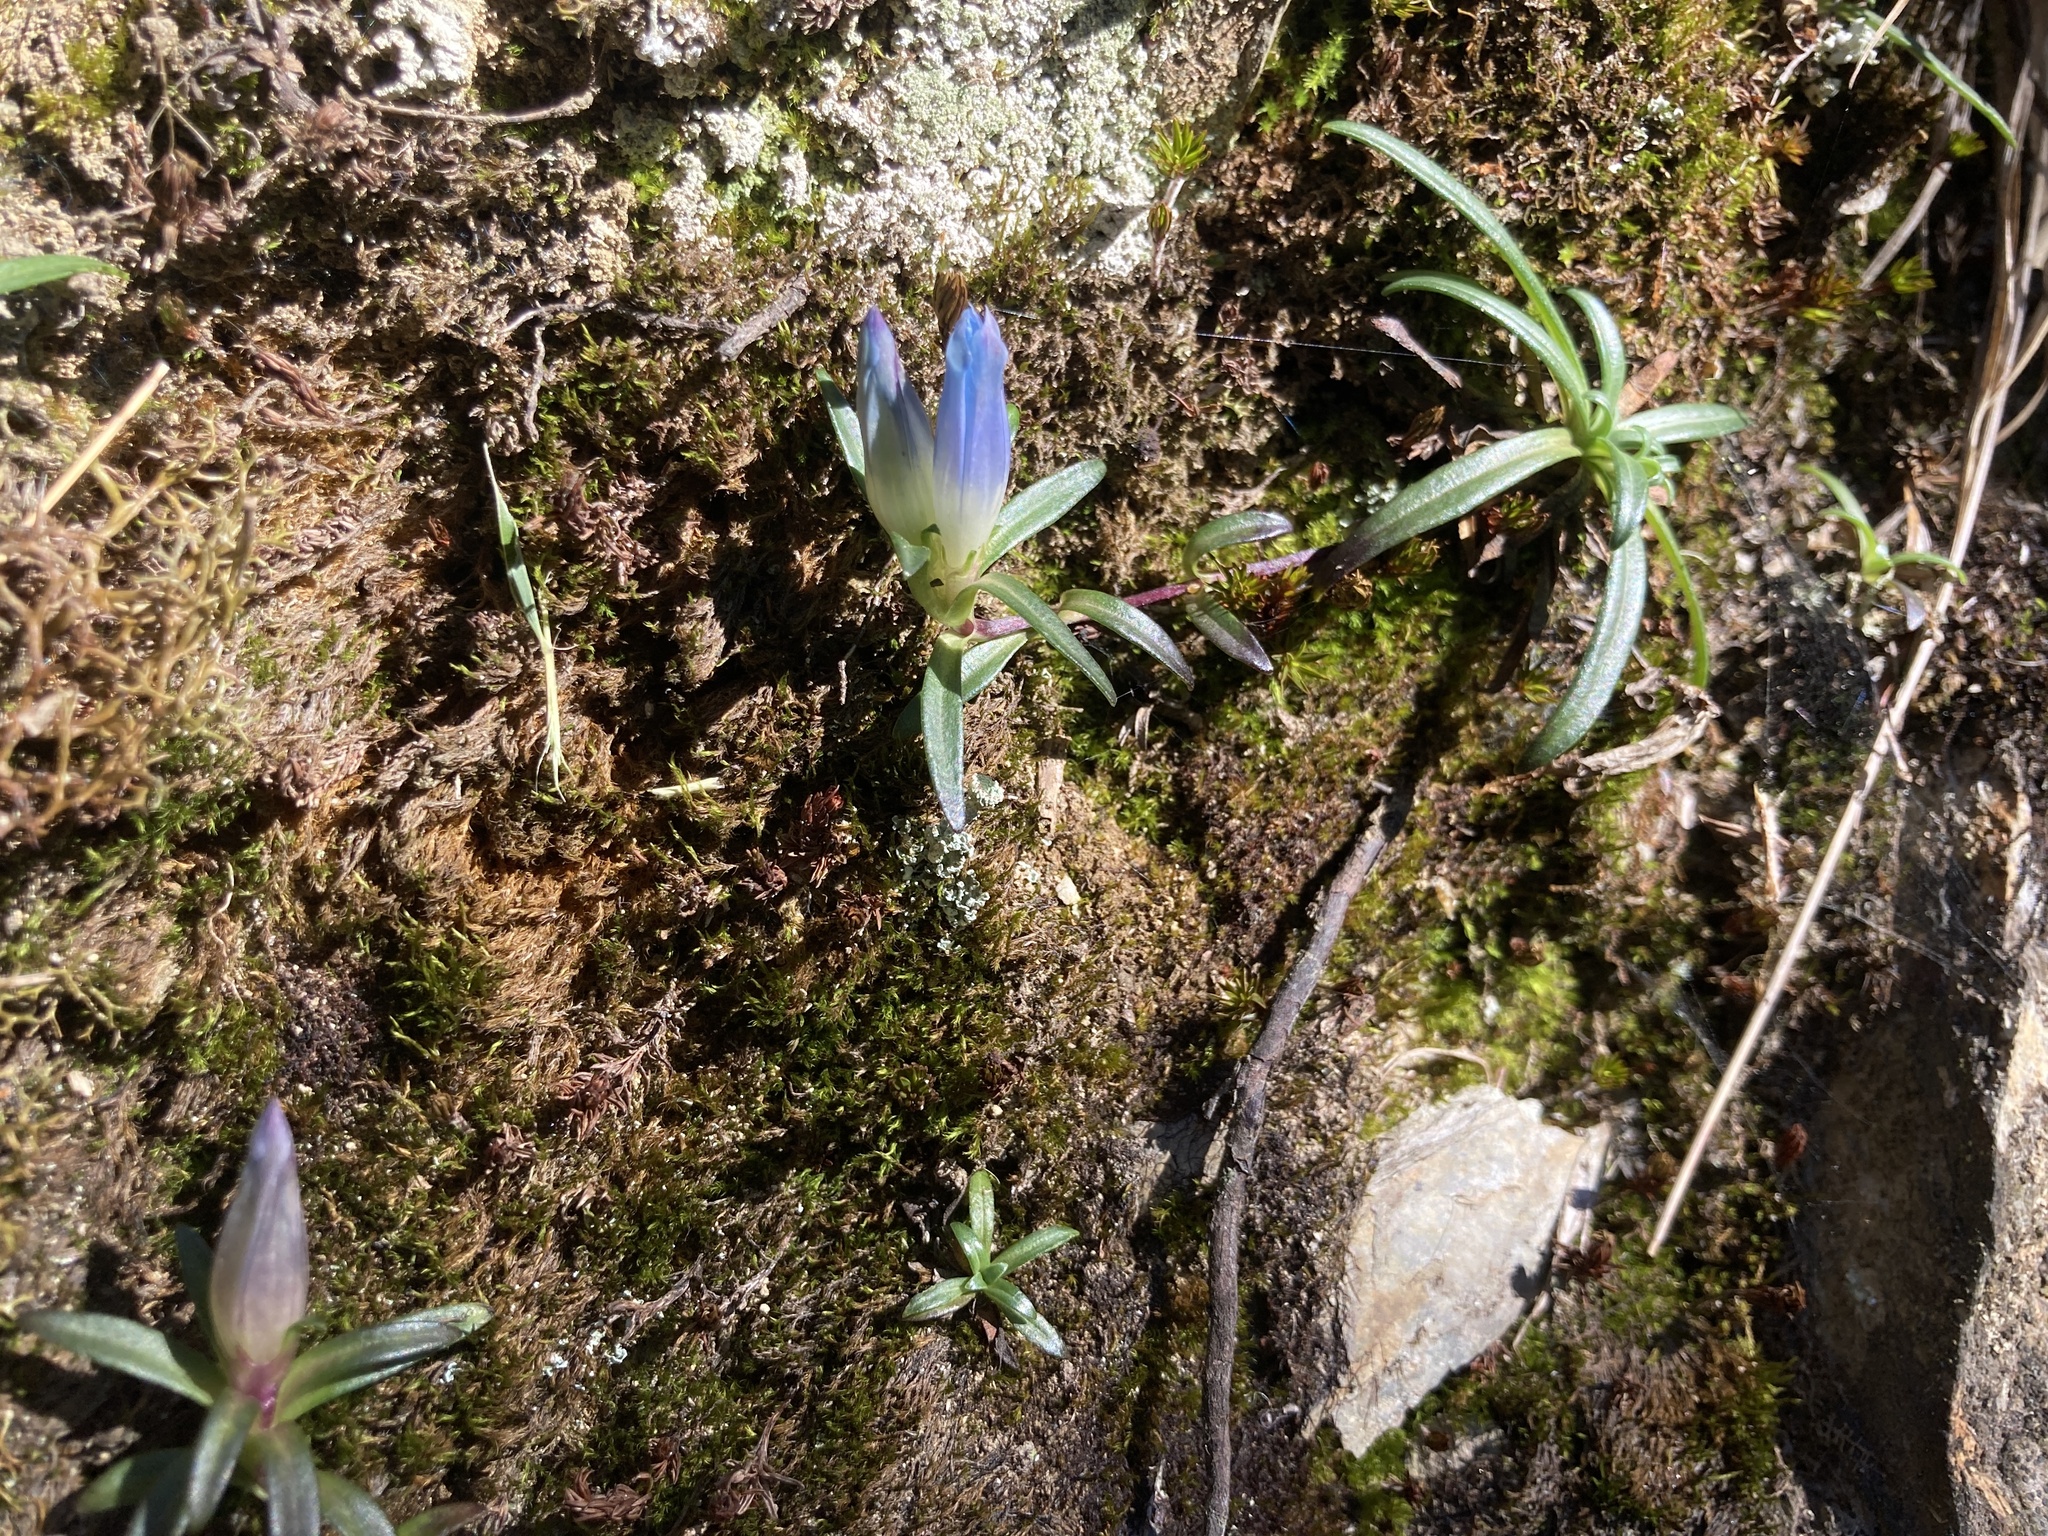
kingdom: Plantae
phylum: Tracheophyta
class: Magnoliopsida
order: Gentianales
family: Gentianaceae
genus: Gentiana
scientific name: Gentiana davidii
